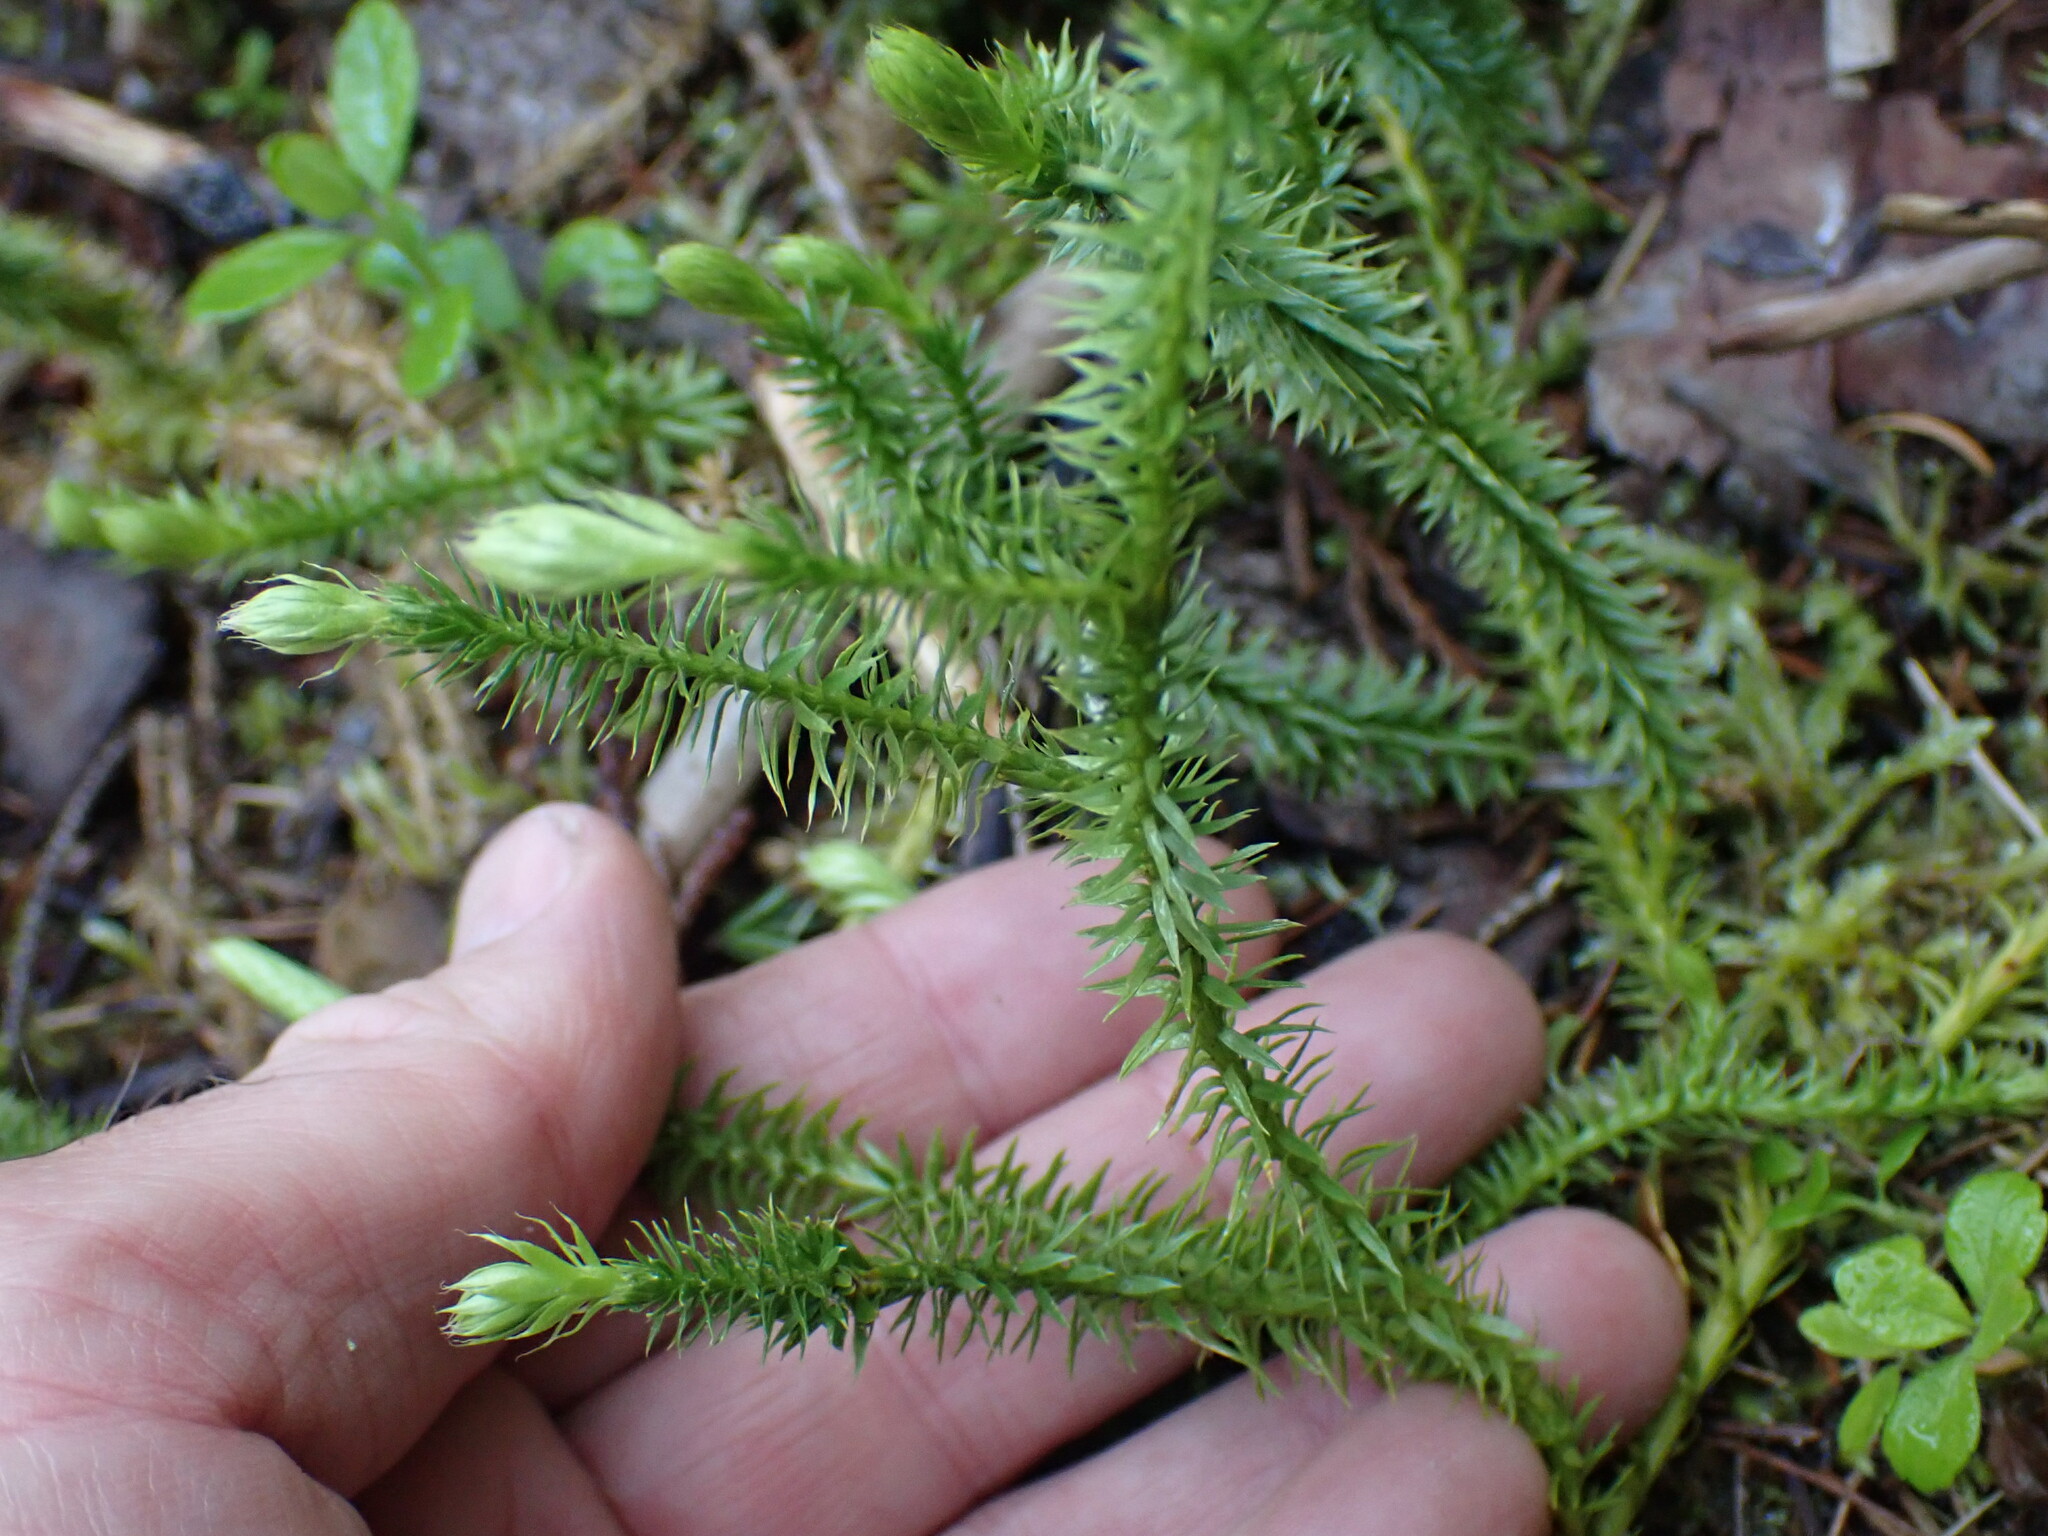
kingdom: Plantae
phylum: Tracheophyta
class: Lycopodiopsida
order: Lycopodiales
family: Lycopodiaceae
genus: Spinulum
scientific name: Spinulum annotinum
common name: Interrupted club-moss
